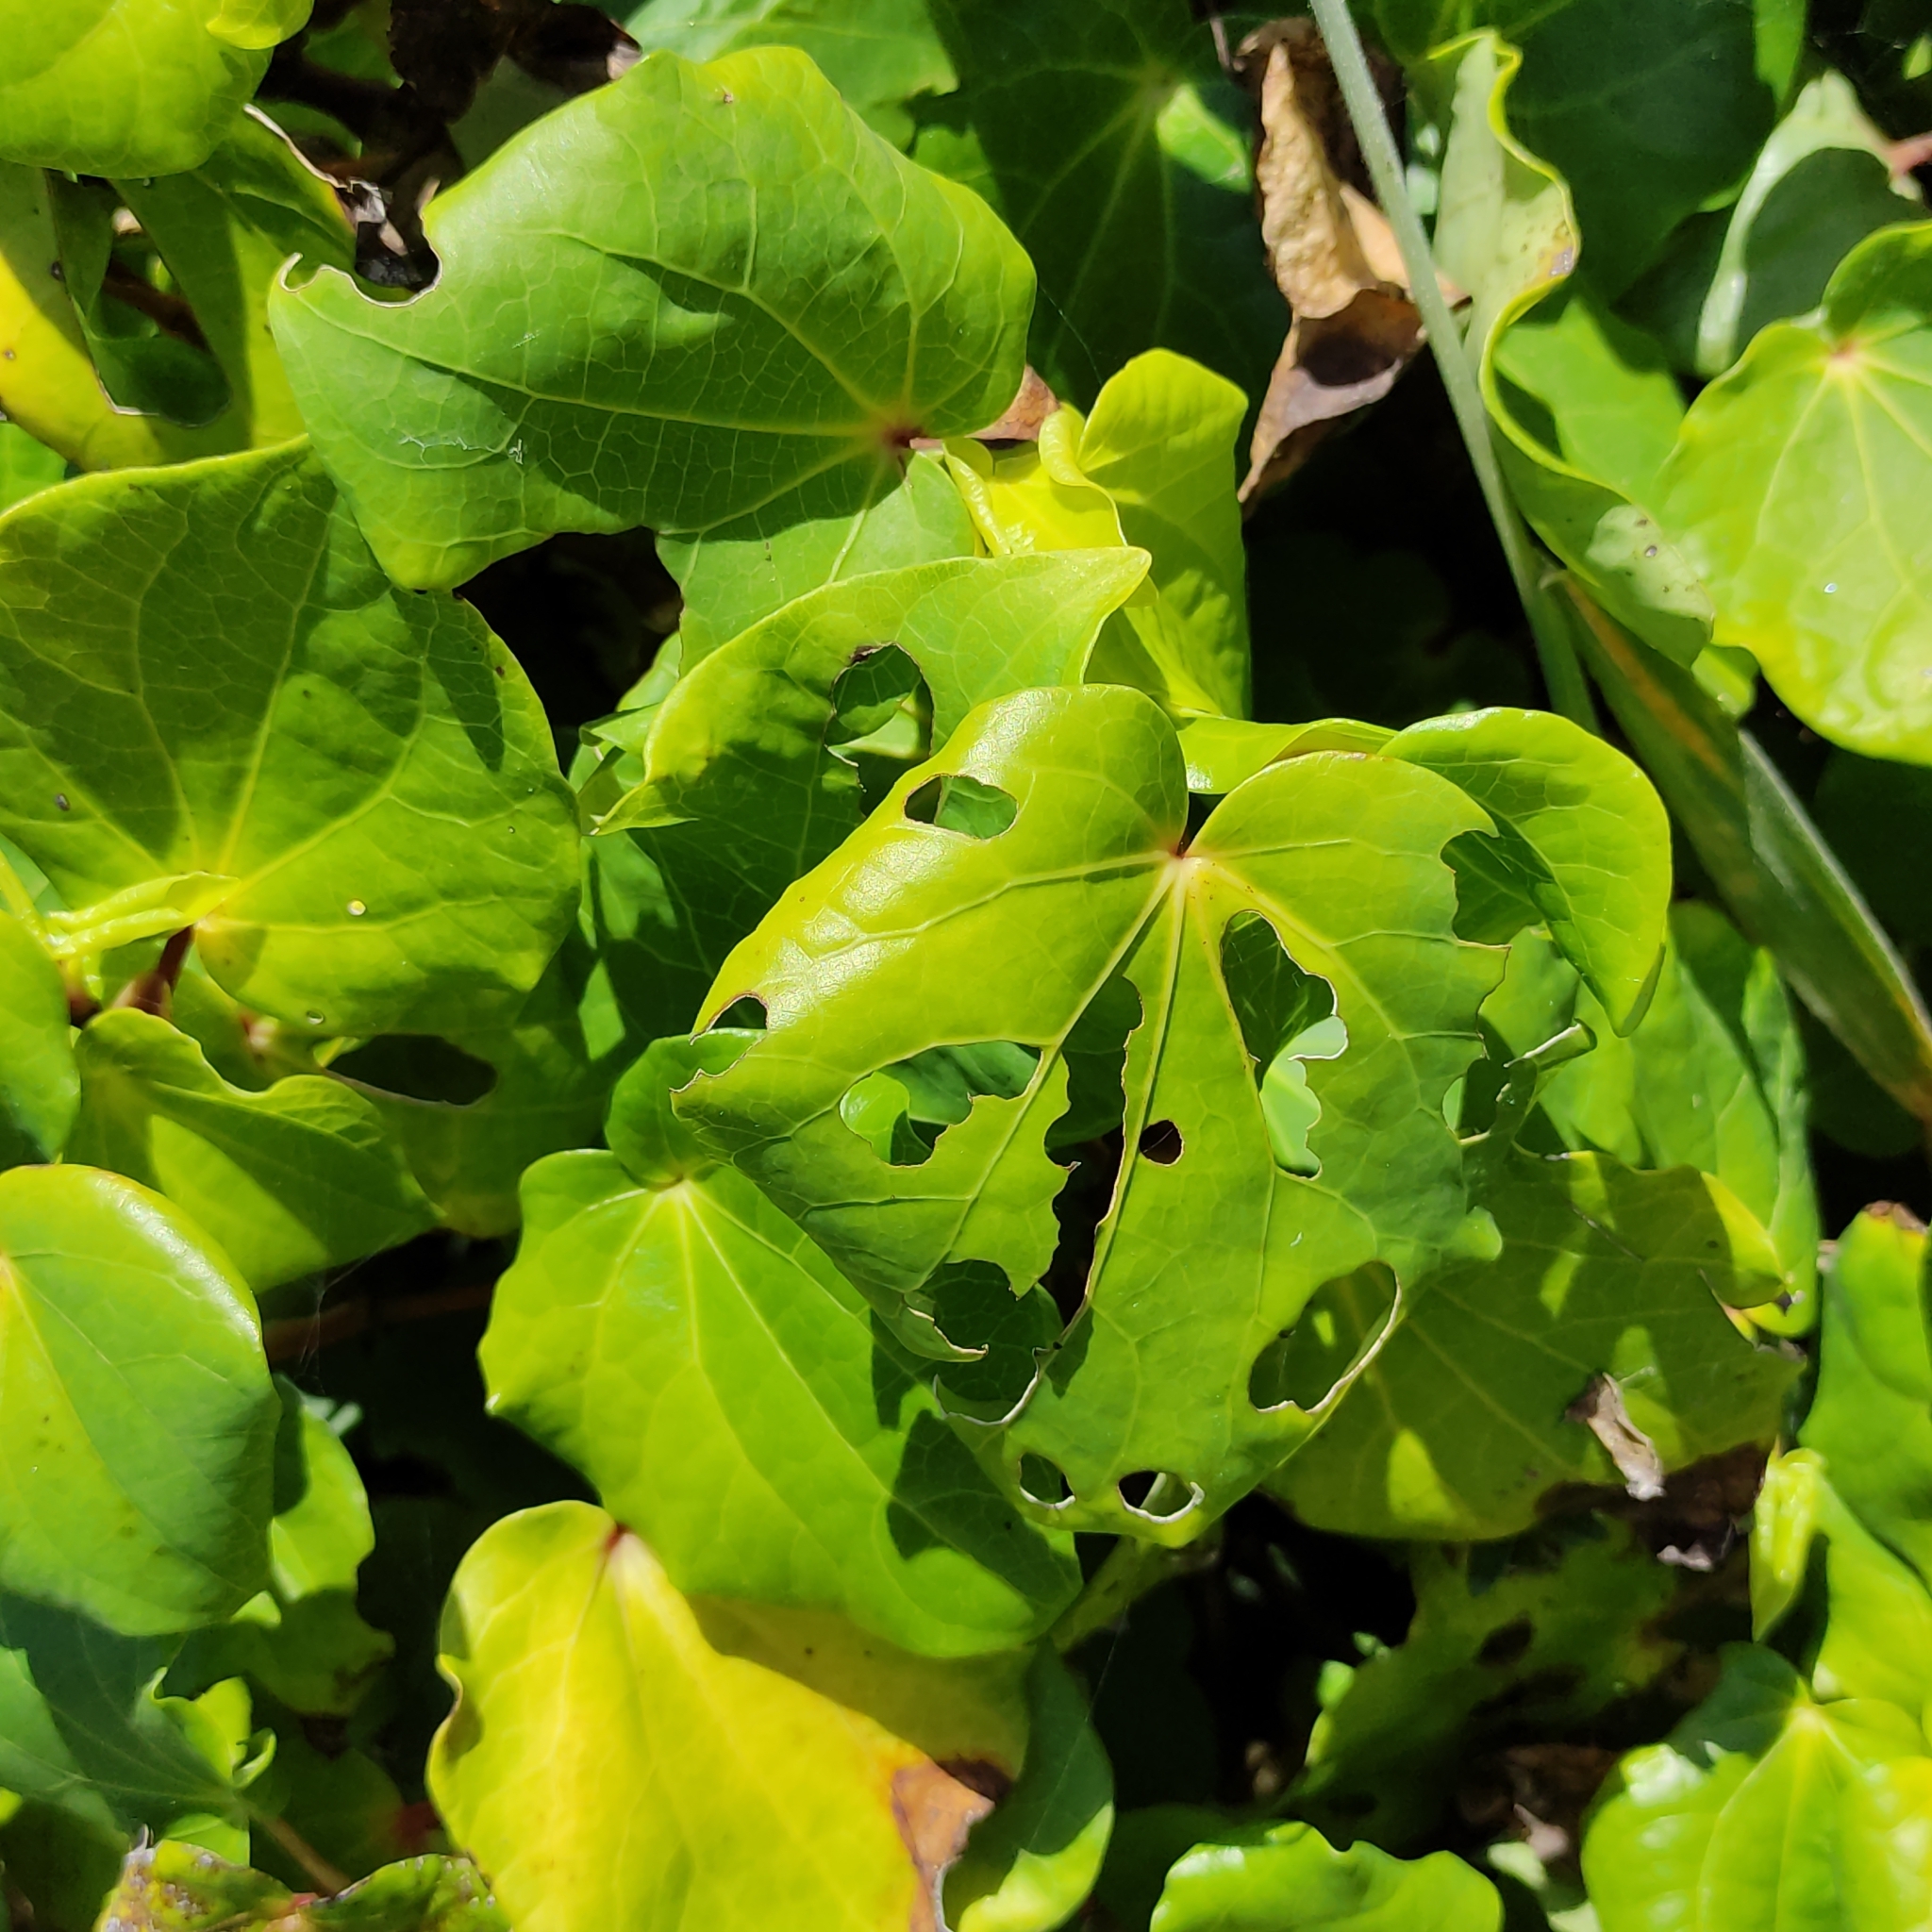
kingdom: Plantae
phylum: Tracheophyta
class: Magnoliopsida
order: Piperales
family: Piperaceae
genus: Macropiper
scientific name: Macropiper excelsum
